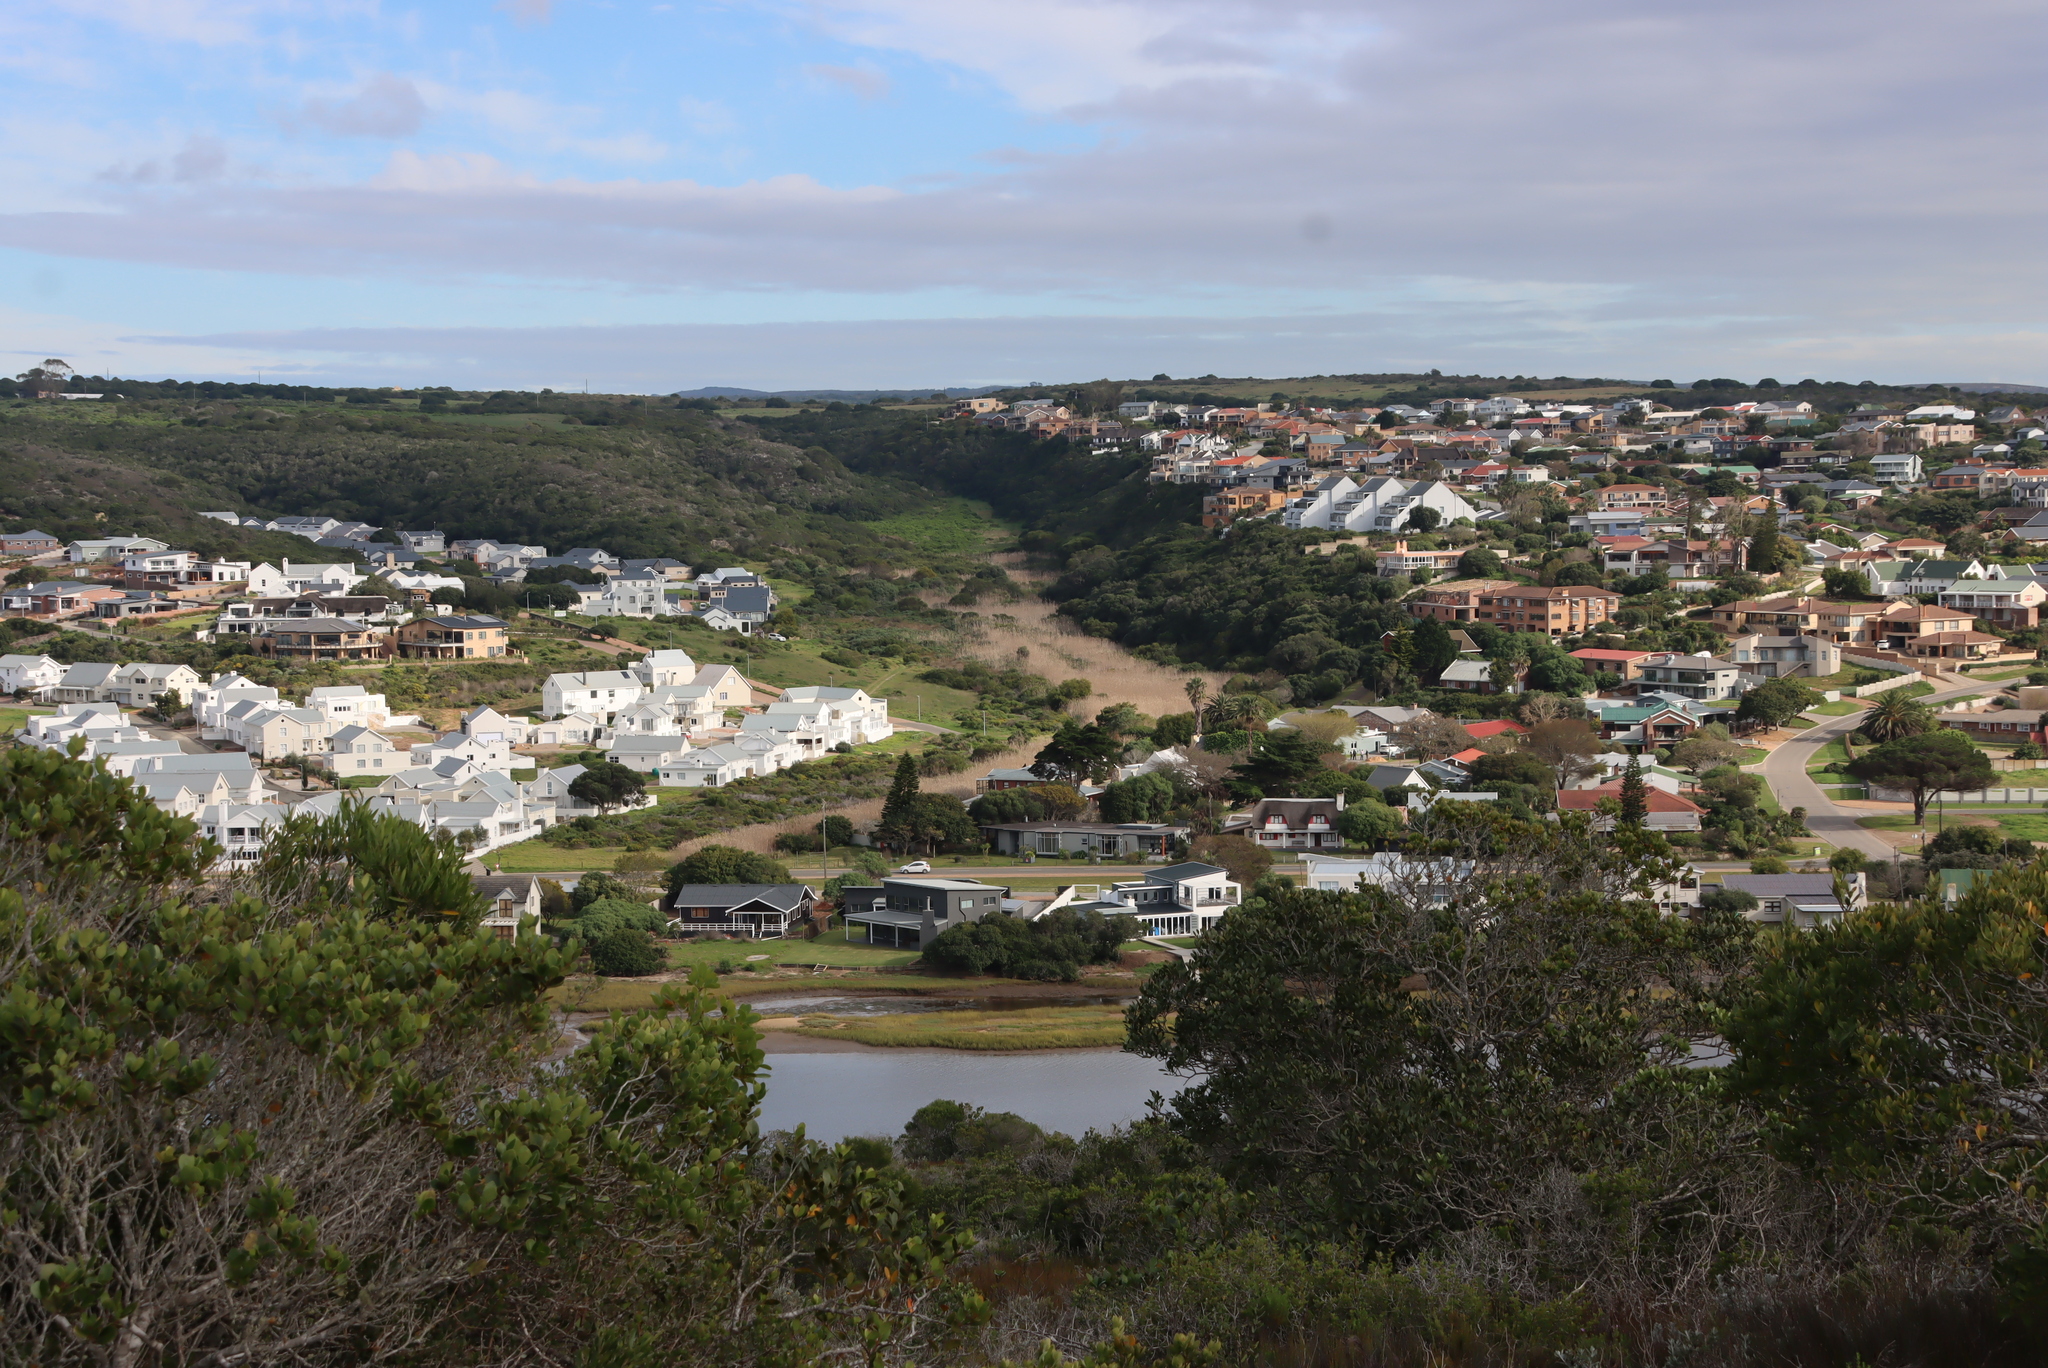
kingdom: Plantae
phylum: Tracheophyta
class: Liliopsida
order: Poales
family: Poaceae
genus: Phragmites
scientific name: Phragmites australis
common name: Common reed
